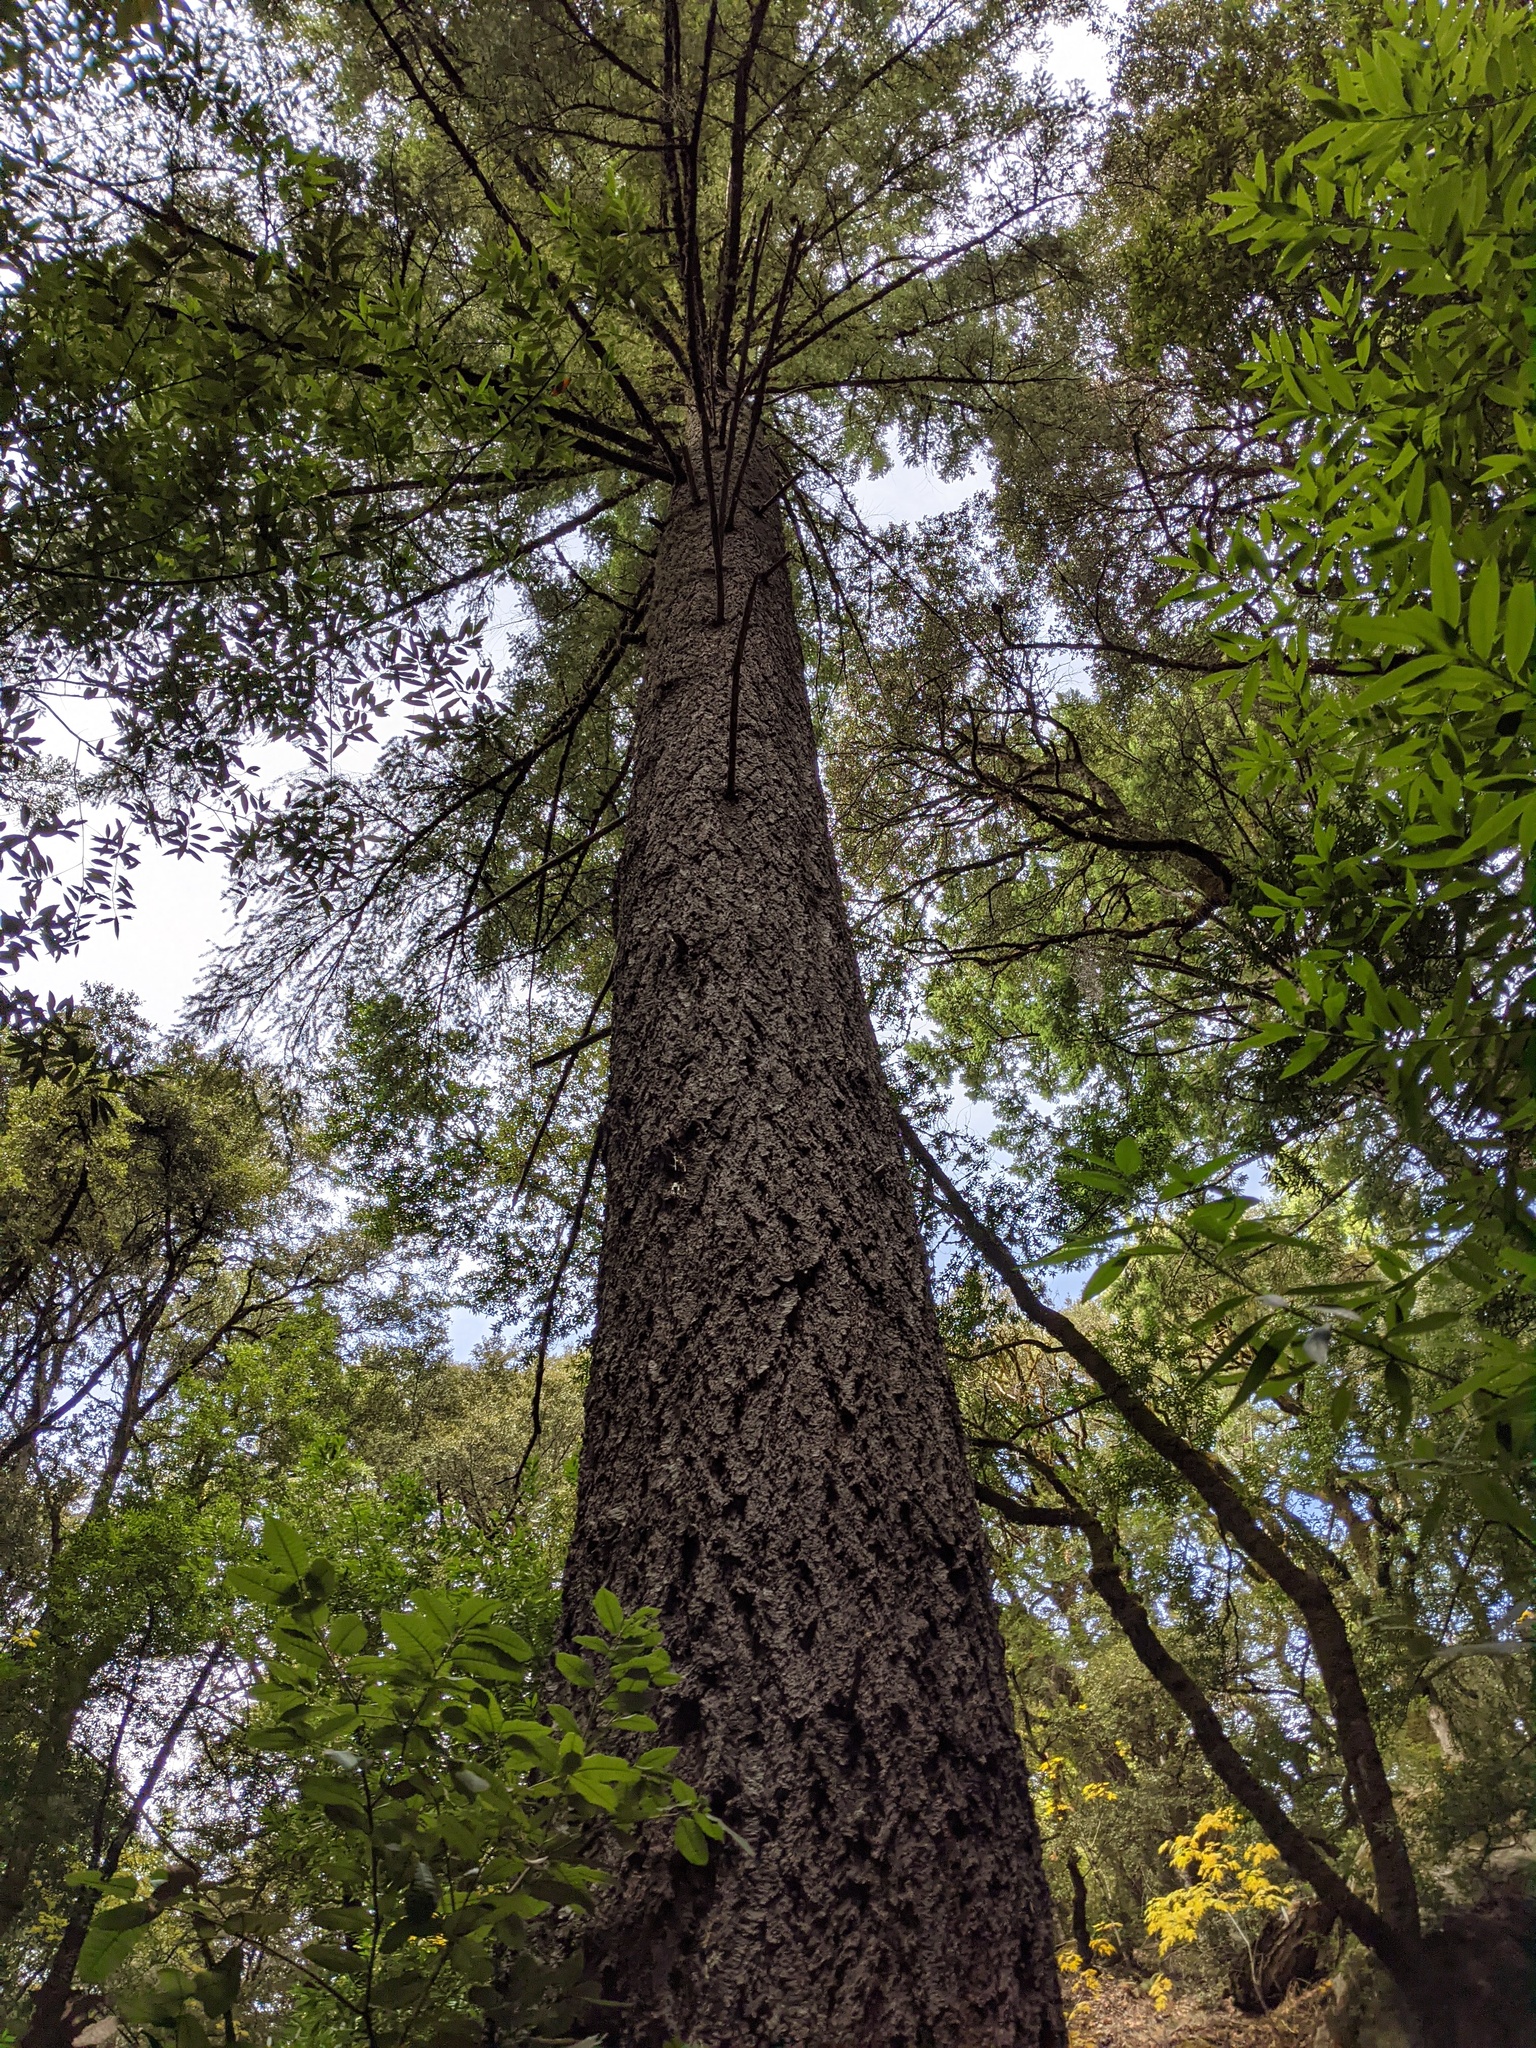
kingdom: Plantae
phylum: Tracheophyta
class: Pinopsida
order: Pinales
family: Pinaceae
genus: Pseudotsuga
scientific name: Pseudotsuga menziesii
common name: Douglas fir
